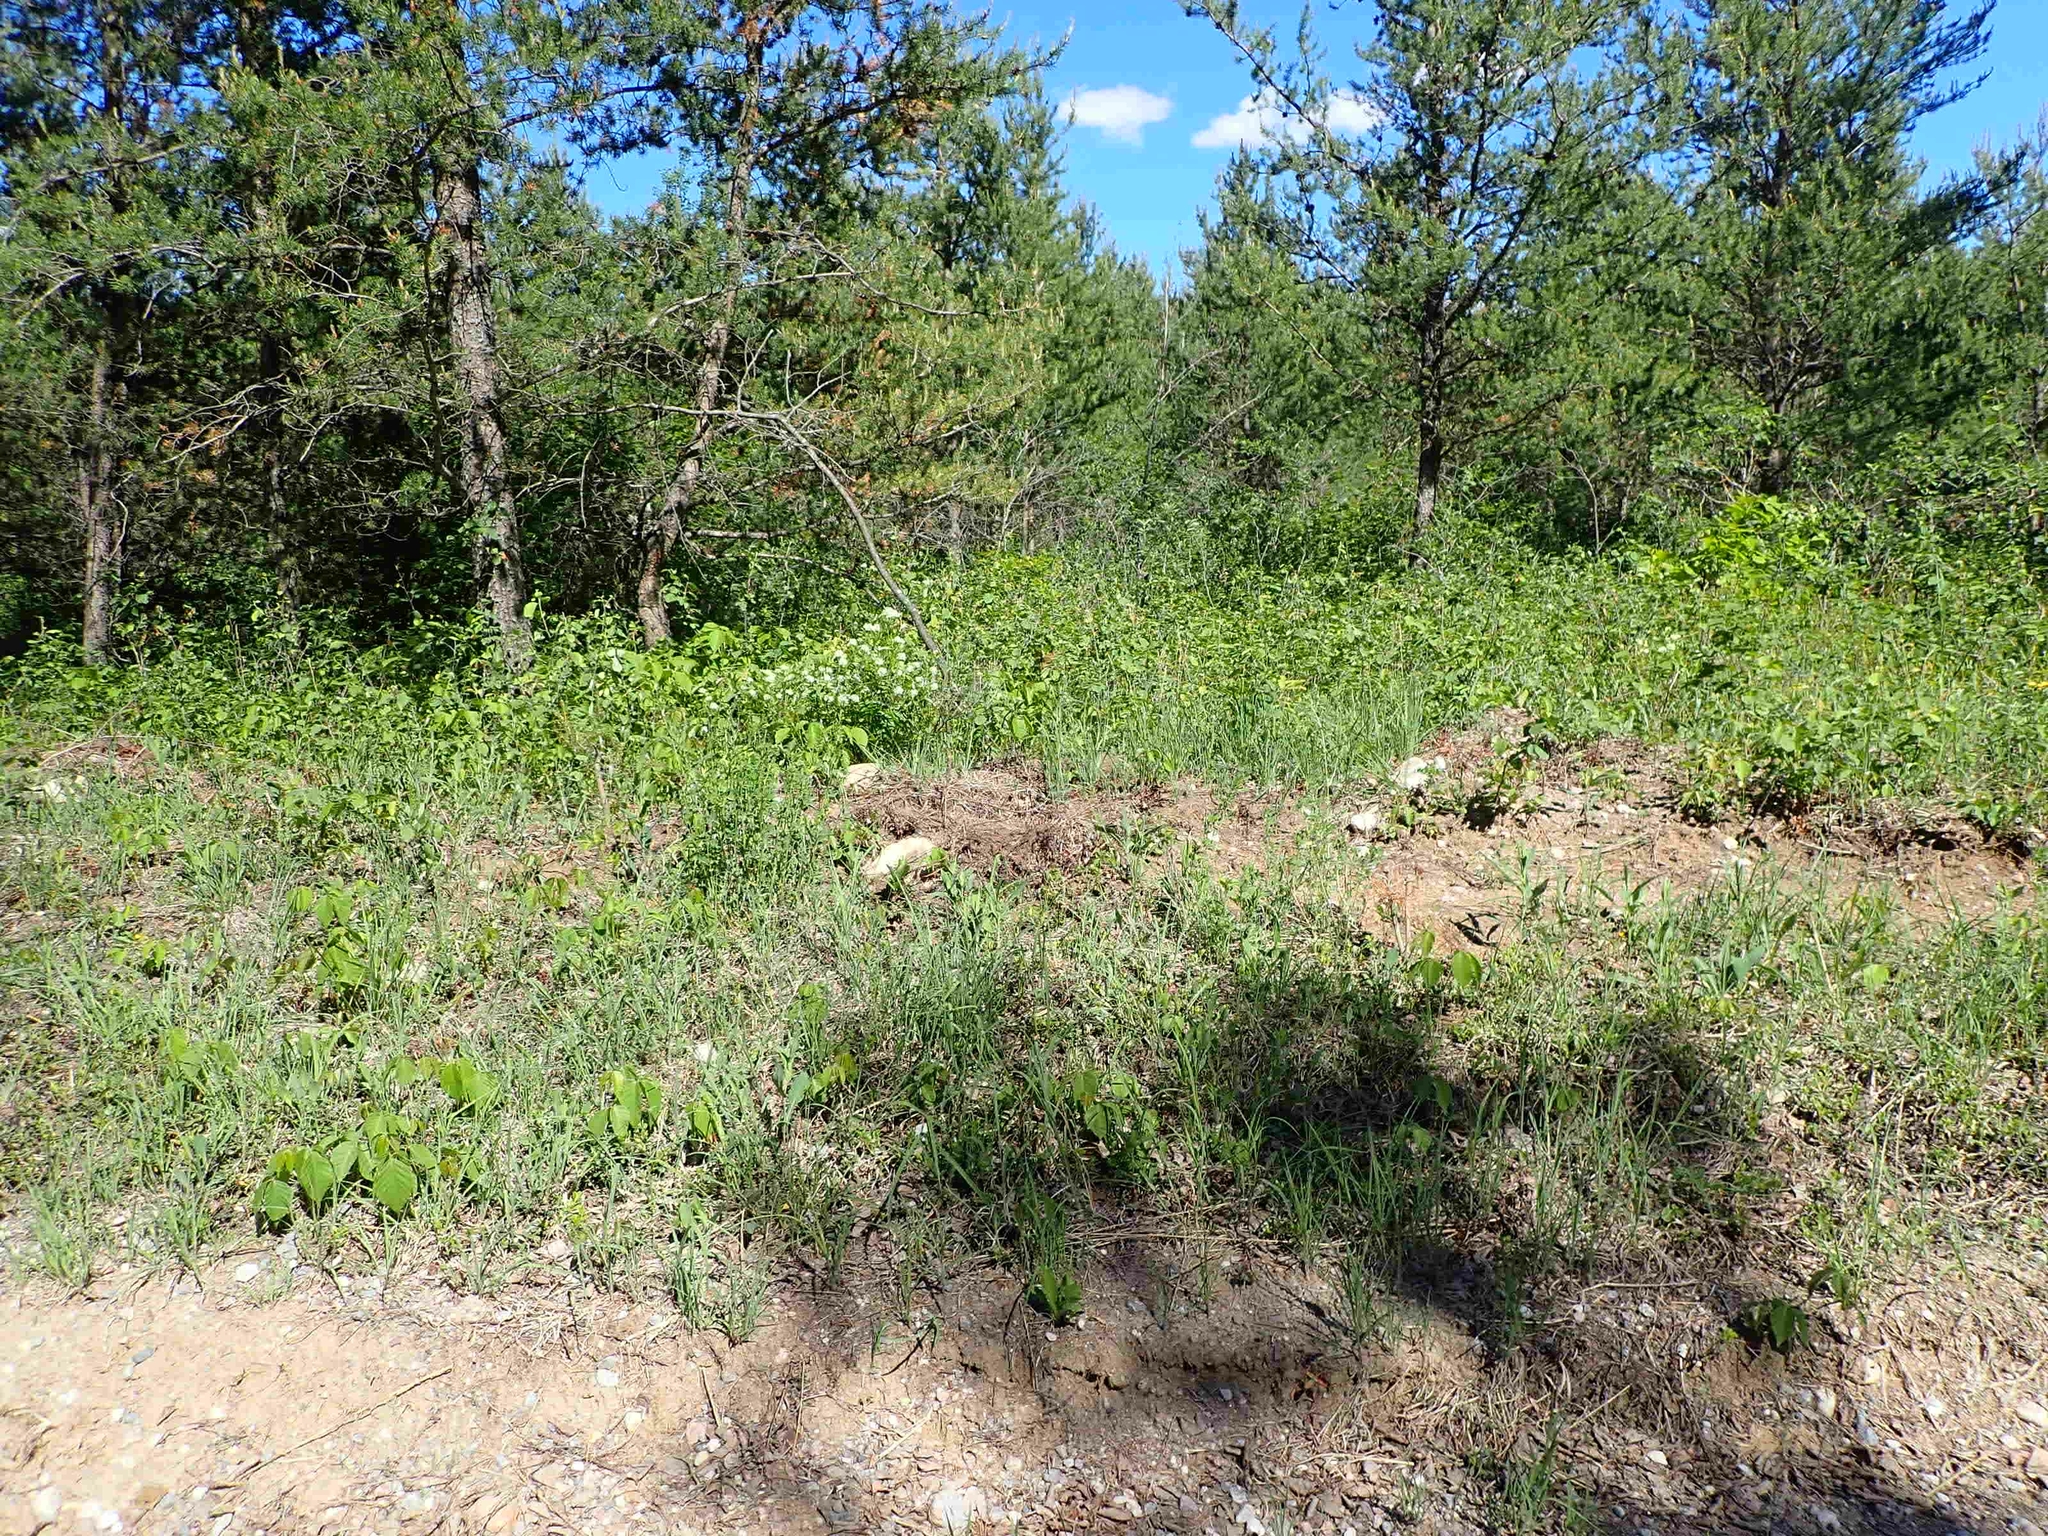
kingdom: Plantae
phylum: Tracheophyta
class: Magnoliopsida
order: Rosales
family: Rhamnaceae
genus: Ceanothus
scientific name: Ceanothus herbaceus
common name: Inland ceanothus
